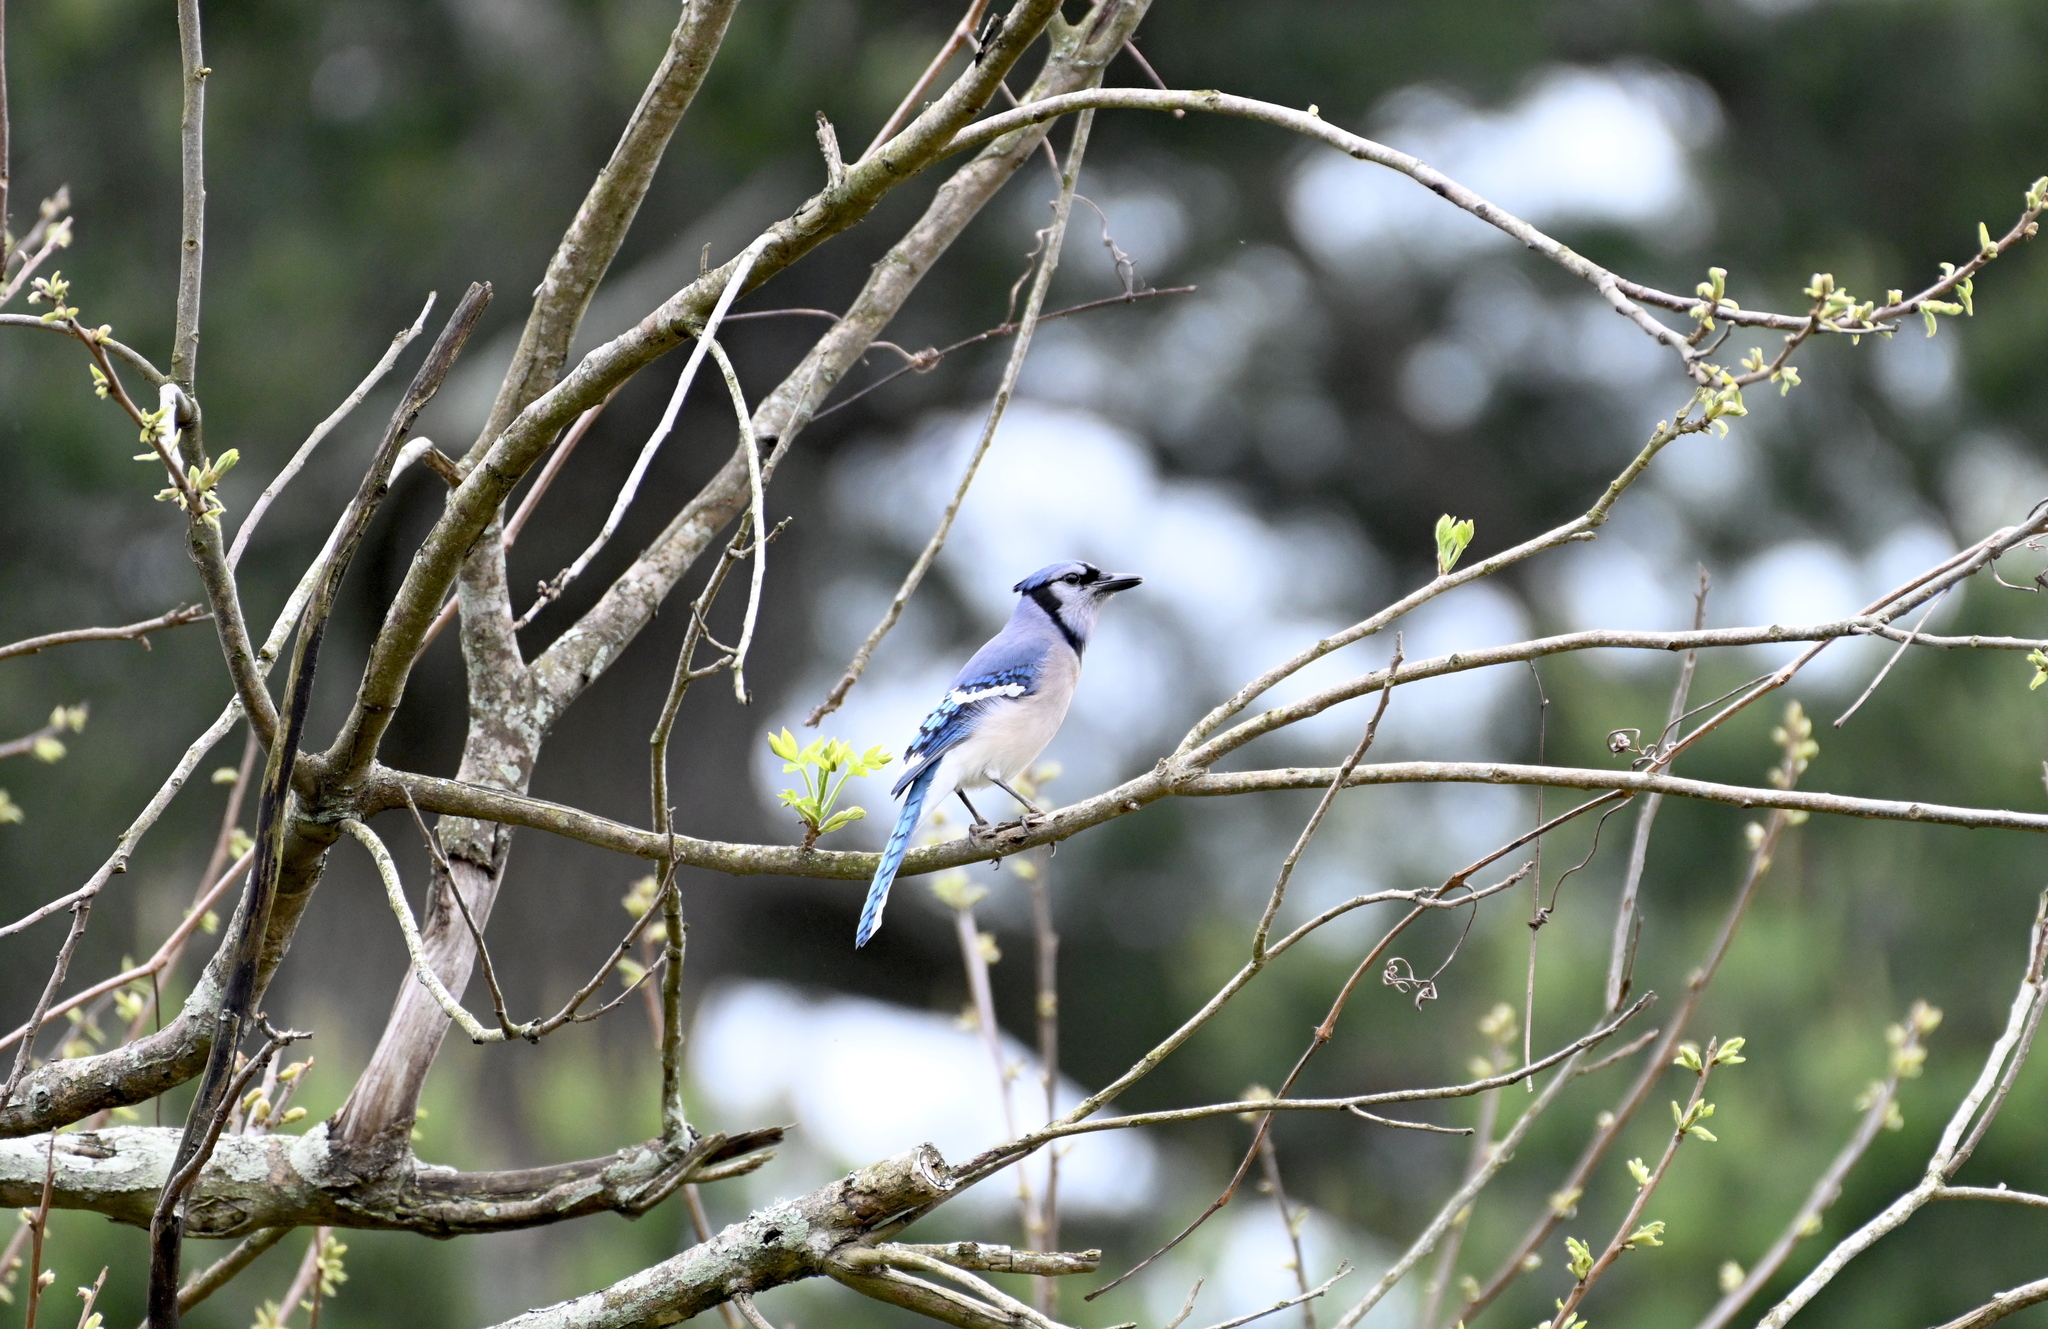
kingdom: Animalia
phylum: Chordata
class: Aves
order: Passeriformes
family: Corvidae
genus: Cyanocitta
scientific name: Cyanocitta cristata
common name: Blue jay
